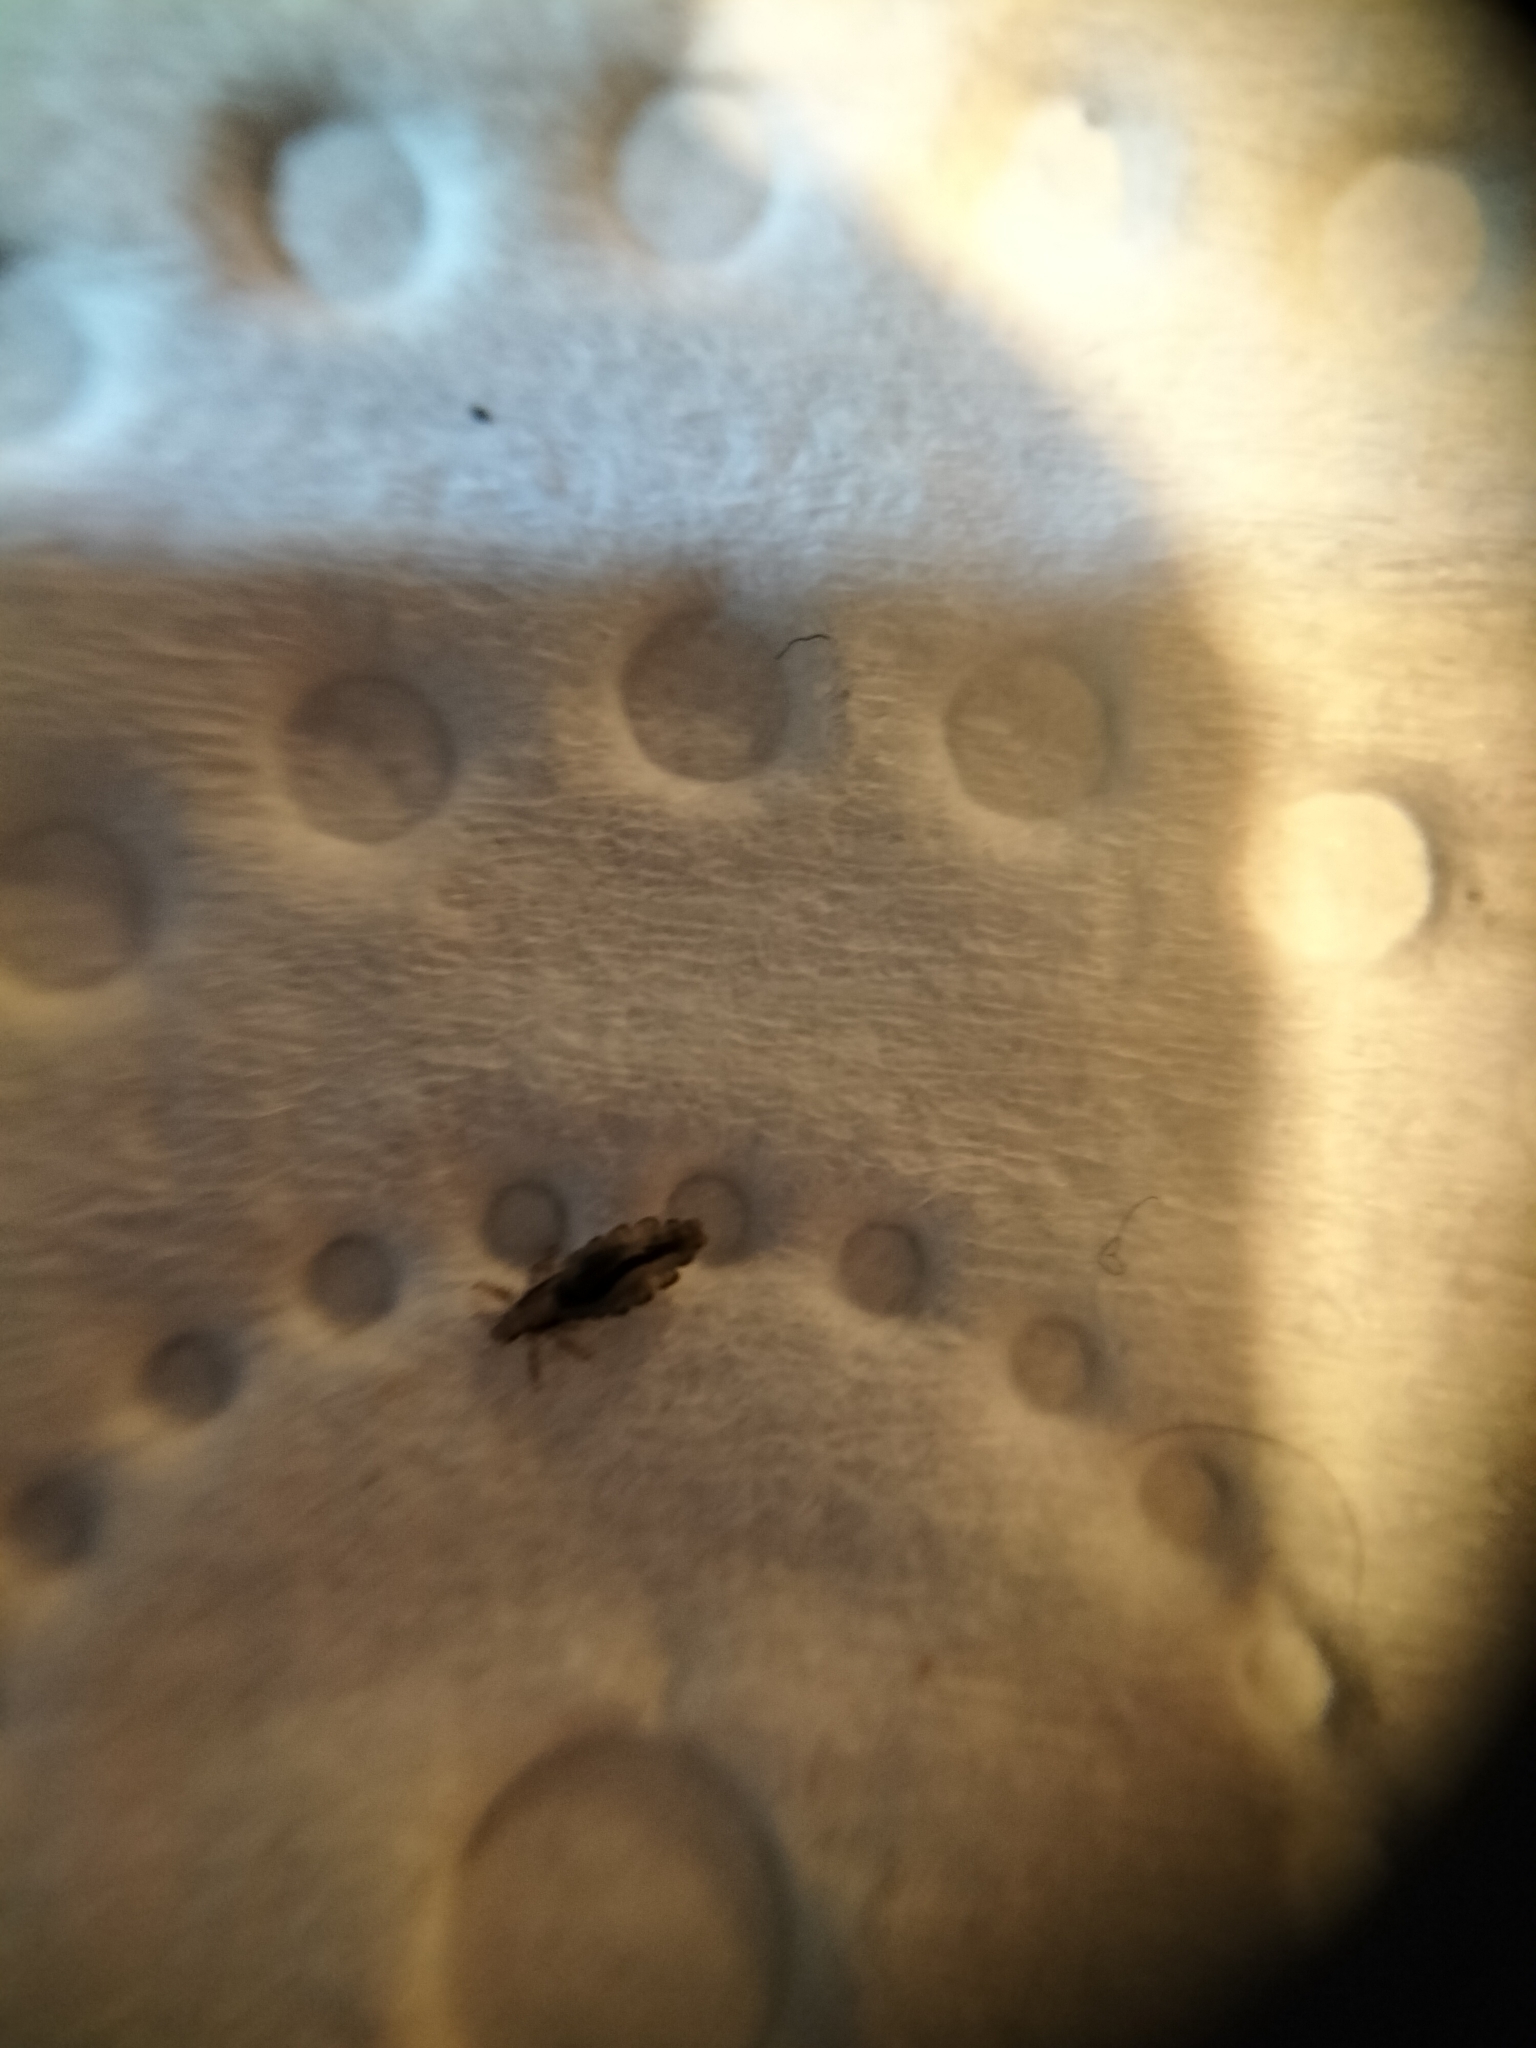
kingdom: Animalia
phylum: Arthropoda
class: Insecta
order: Psocodea
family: Pediculidae
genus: Pediculus
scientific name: Pediculus humanus
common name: Body louse
